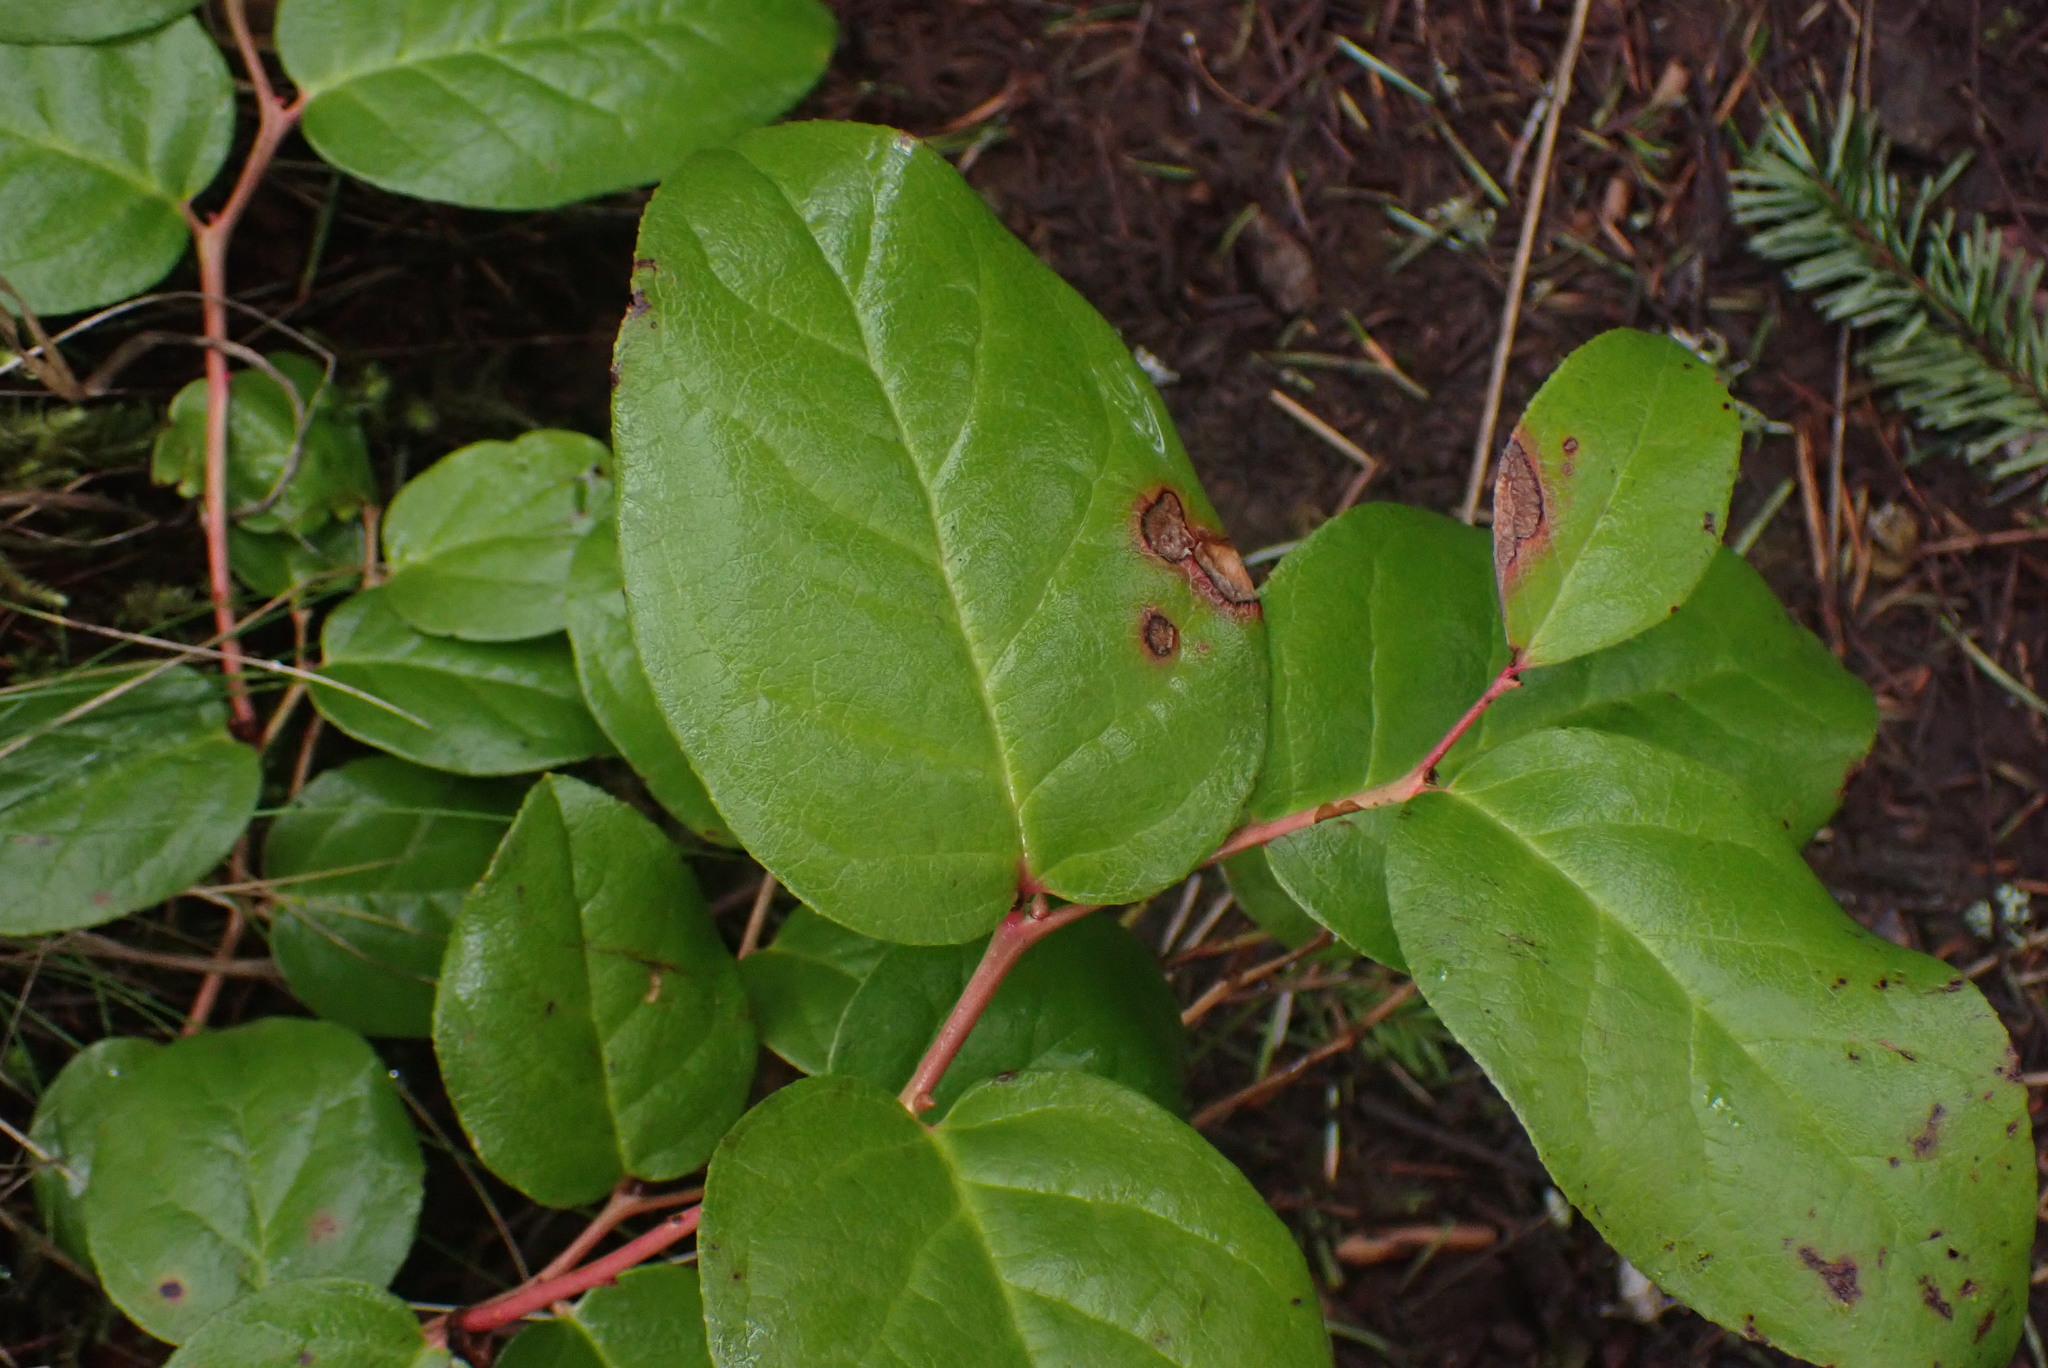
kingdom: Plantae
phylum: Tracheophyta
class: Magnoliopsida
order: Ericales
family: Ericaceae
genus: Gaultheria
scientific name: Gaultheria shallon
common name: Shallon
